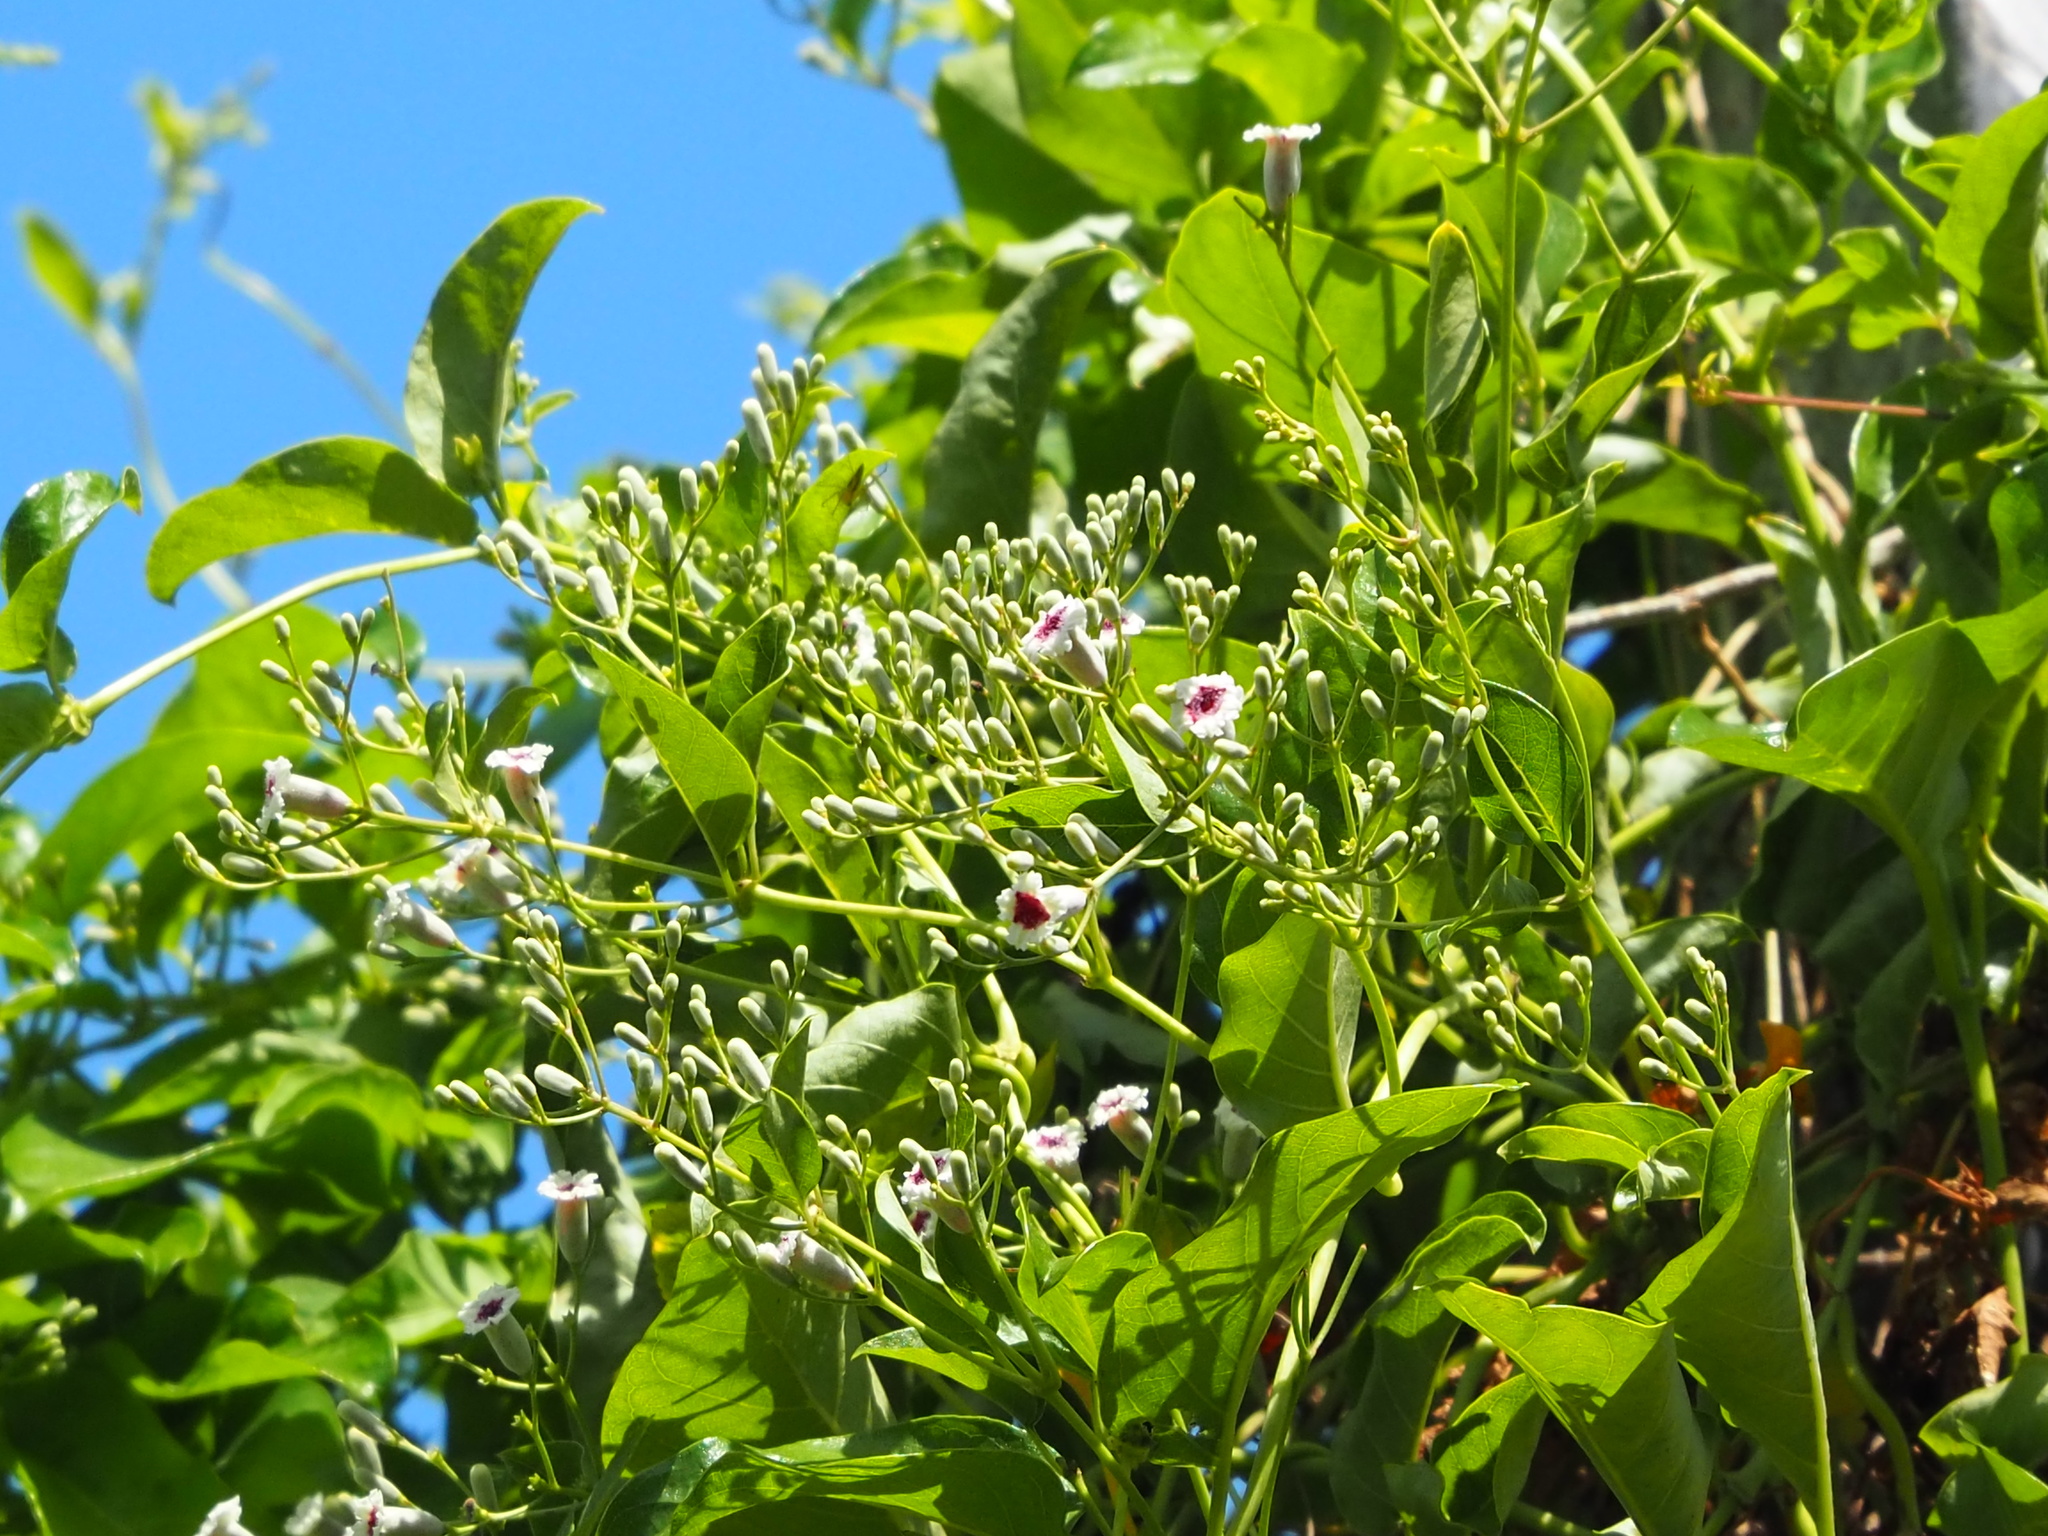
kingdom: Plantae
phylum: Tracheophyta
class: Magnoliopsida
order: Gentianales
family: Rubiaceae
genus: Paederia
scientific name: Paederia foetida
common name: Stinkvine
